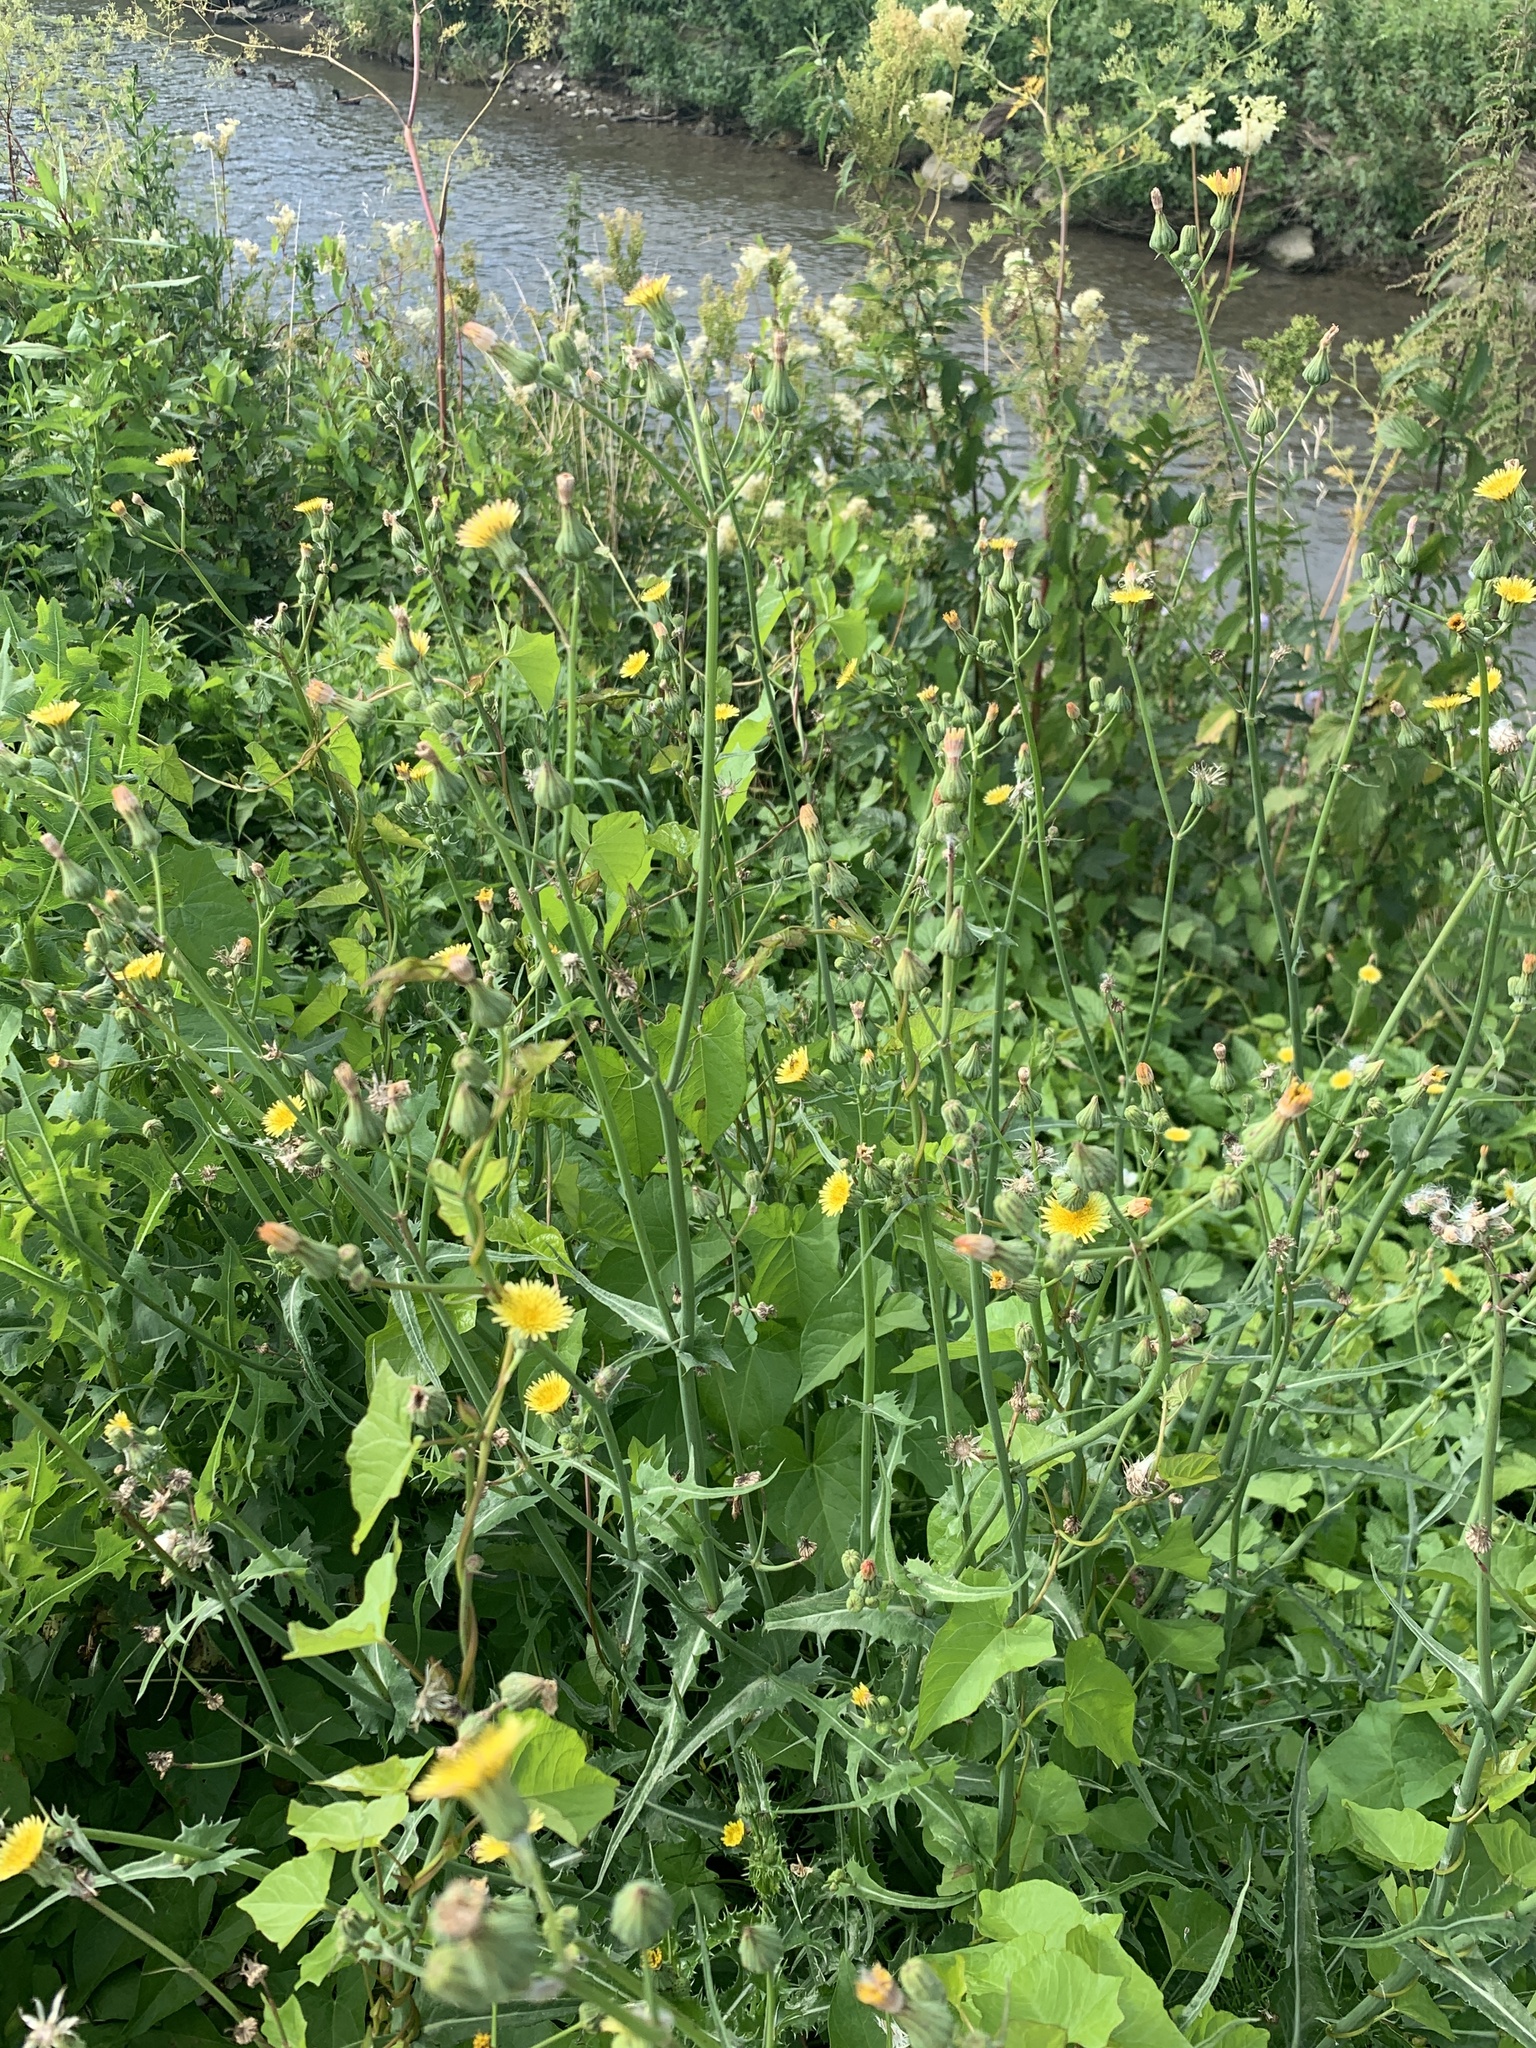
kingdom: Plantae
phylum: Tracheophyta
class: Magnoliopsida
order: Asterales
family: Asteraceae
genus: Sonchus
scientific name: Sonchus oleraceus
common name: Common sowthistle
